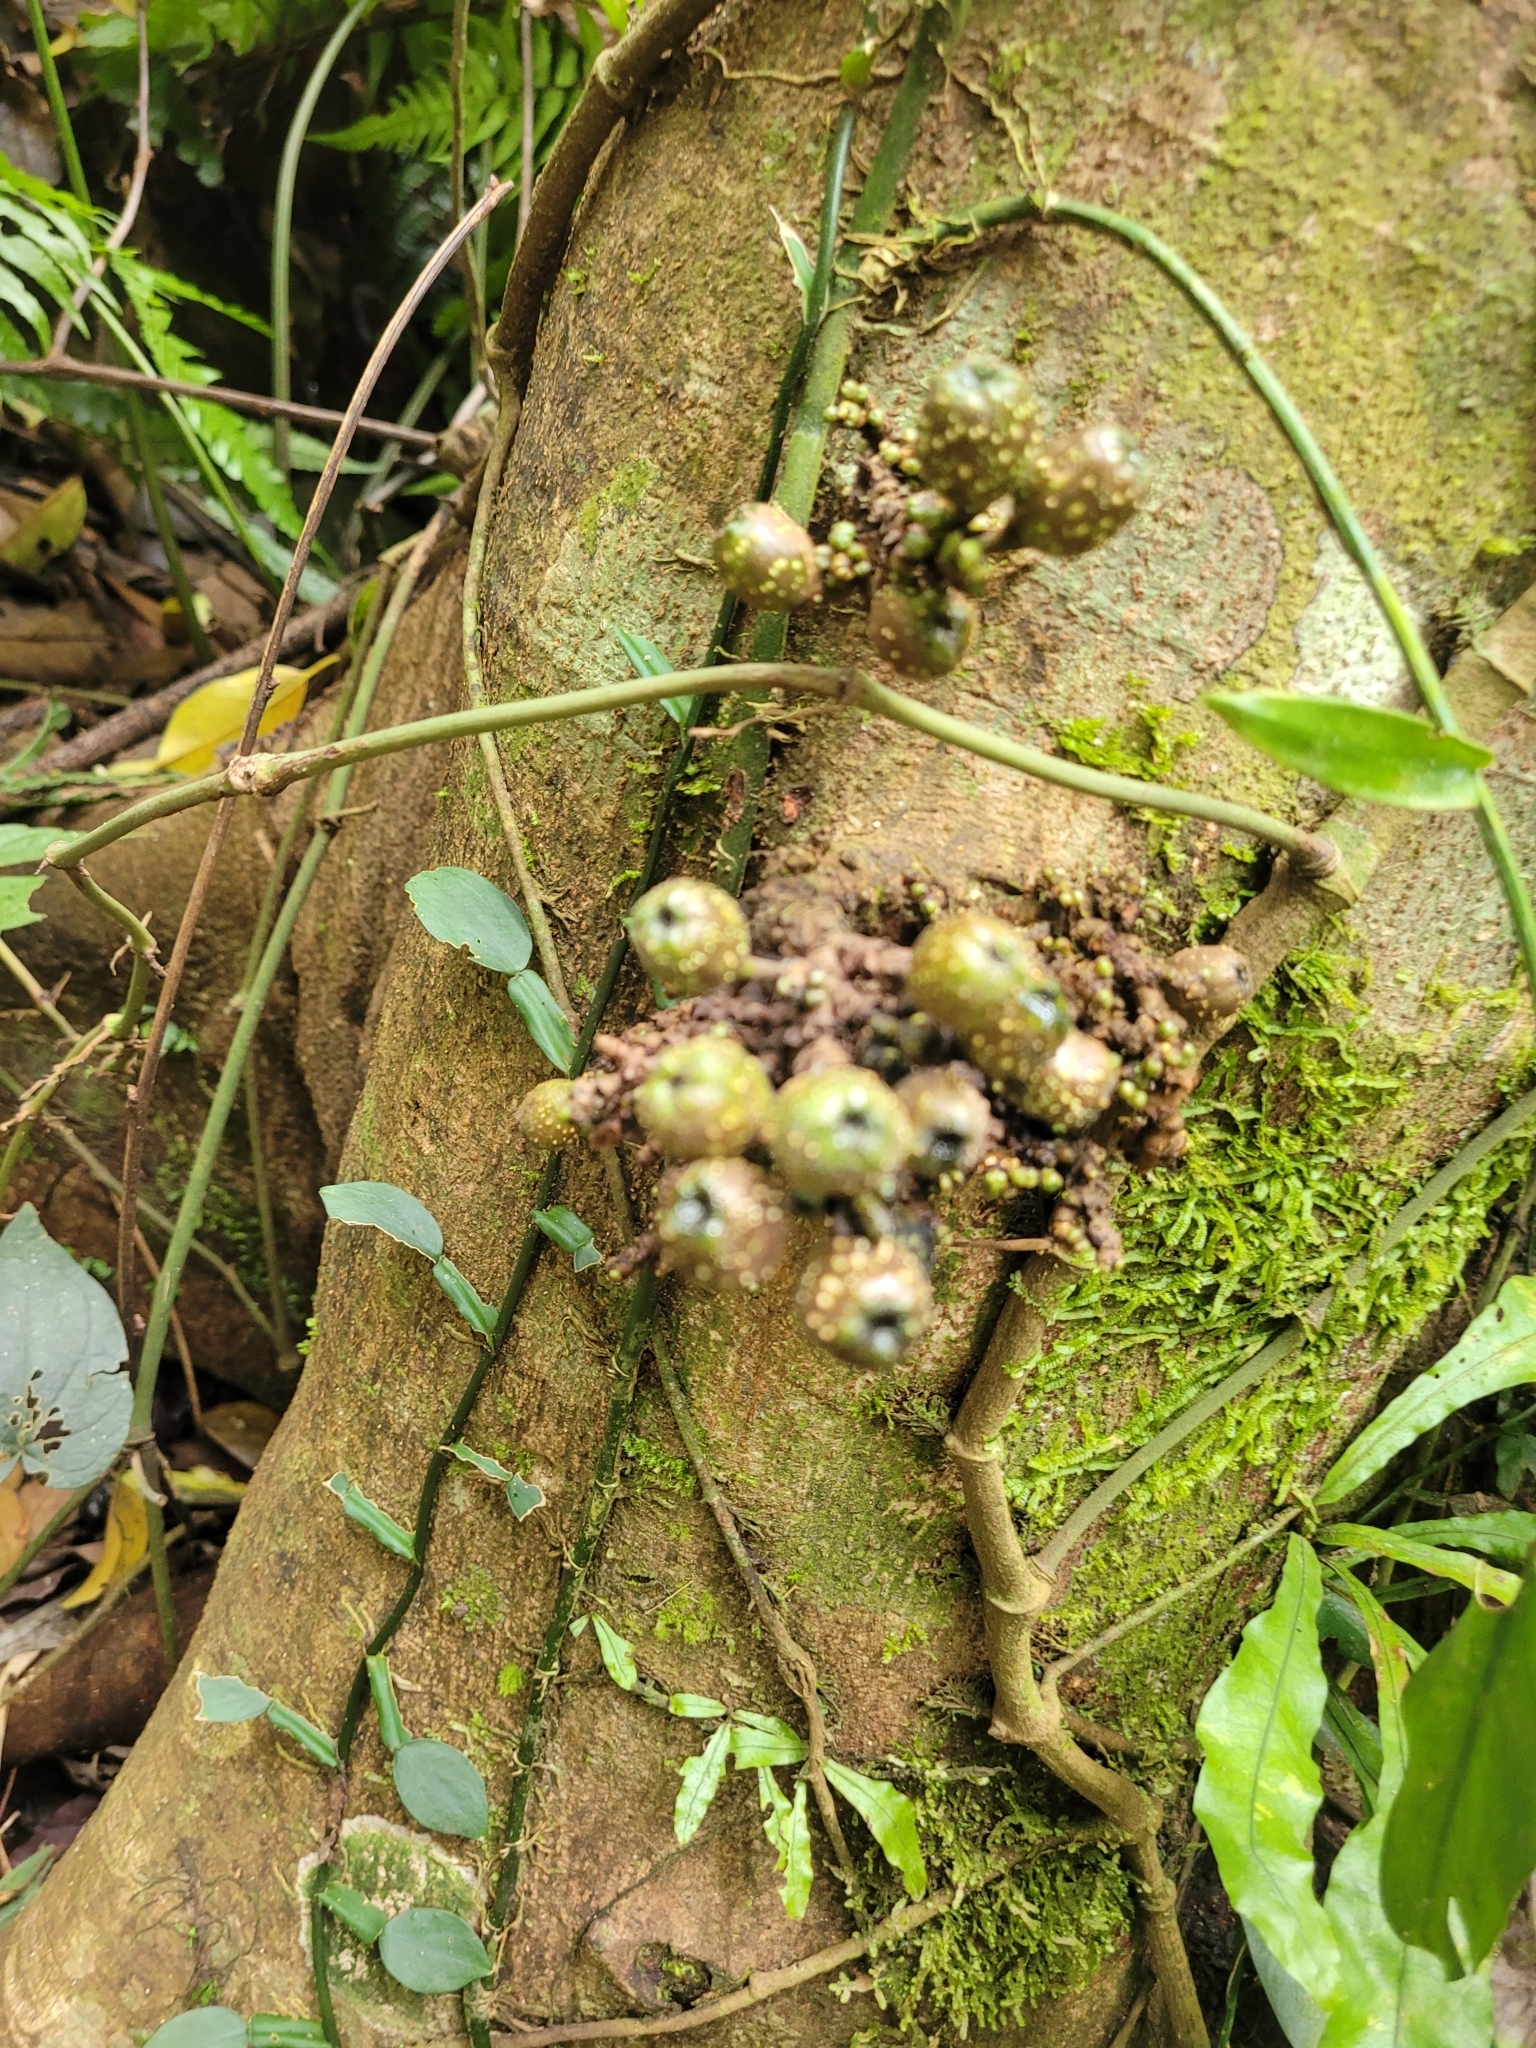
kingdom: Plantae
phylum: Tracheophyta
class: Magnoliopsida
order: Rosales
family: Moraceae
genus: Ficus
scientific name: Ficus benguetensis
